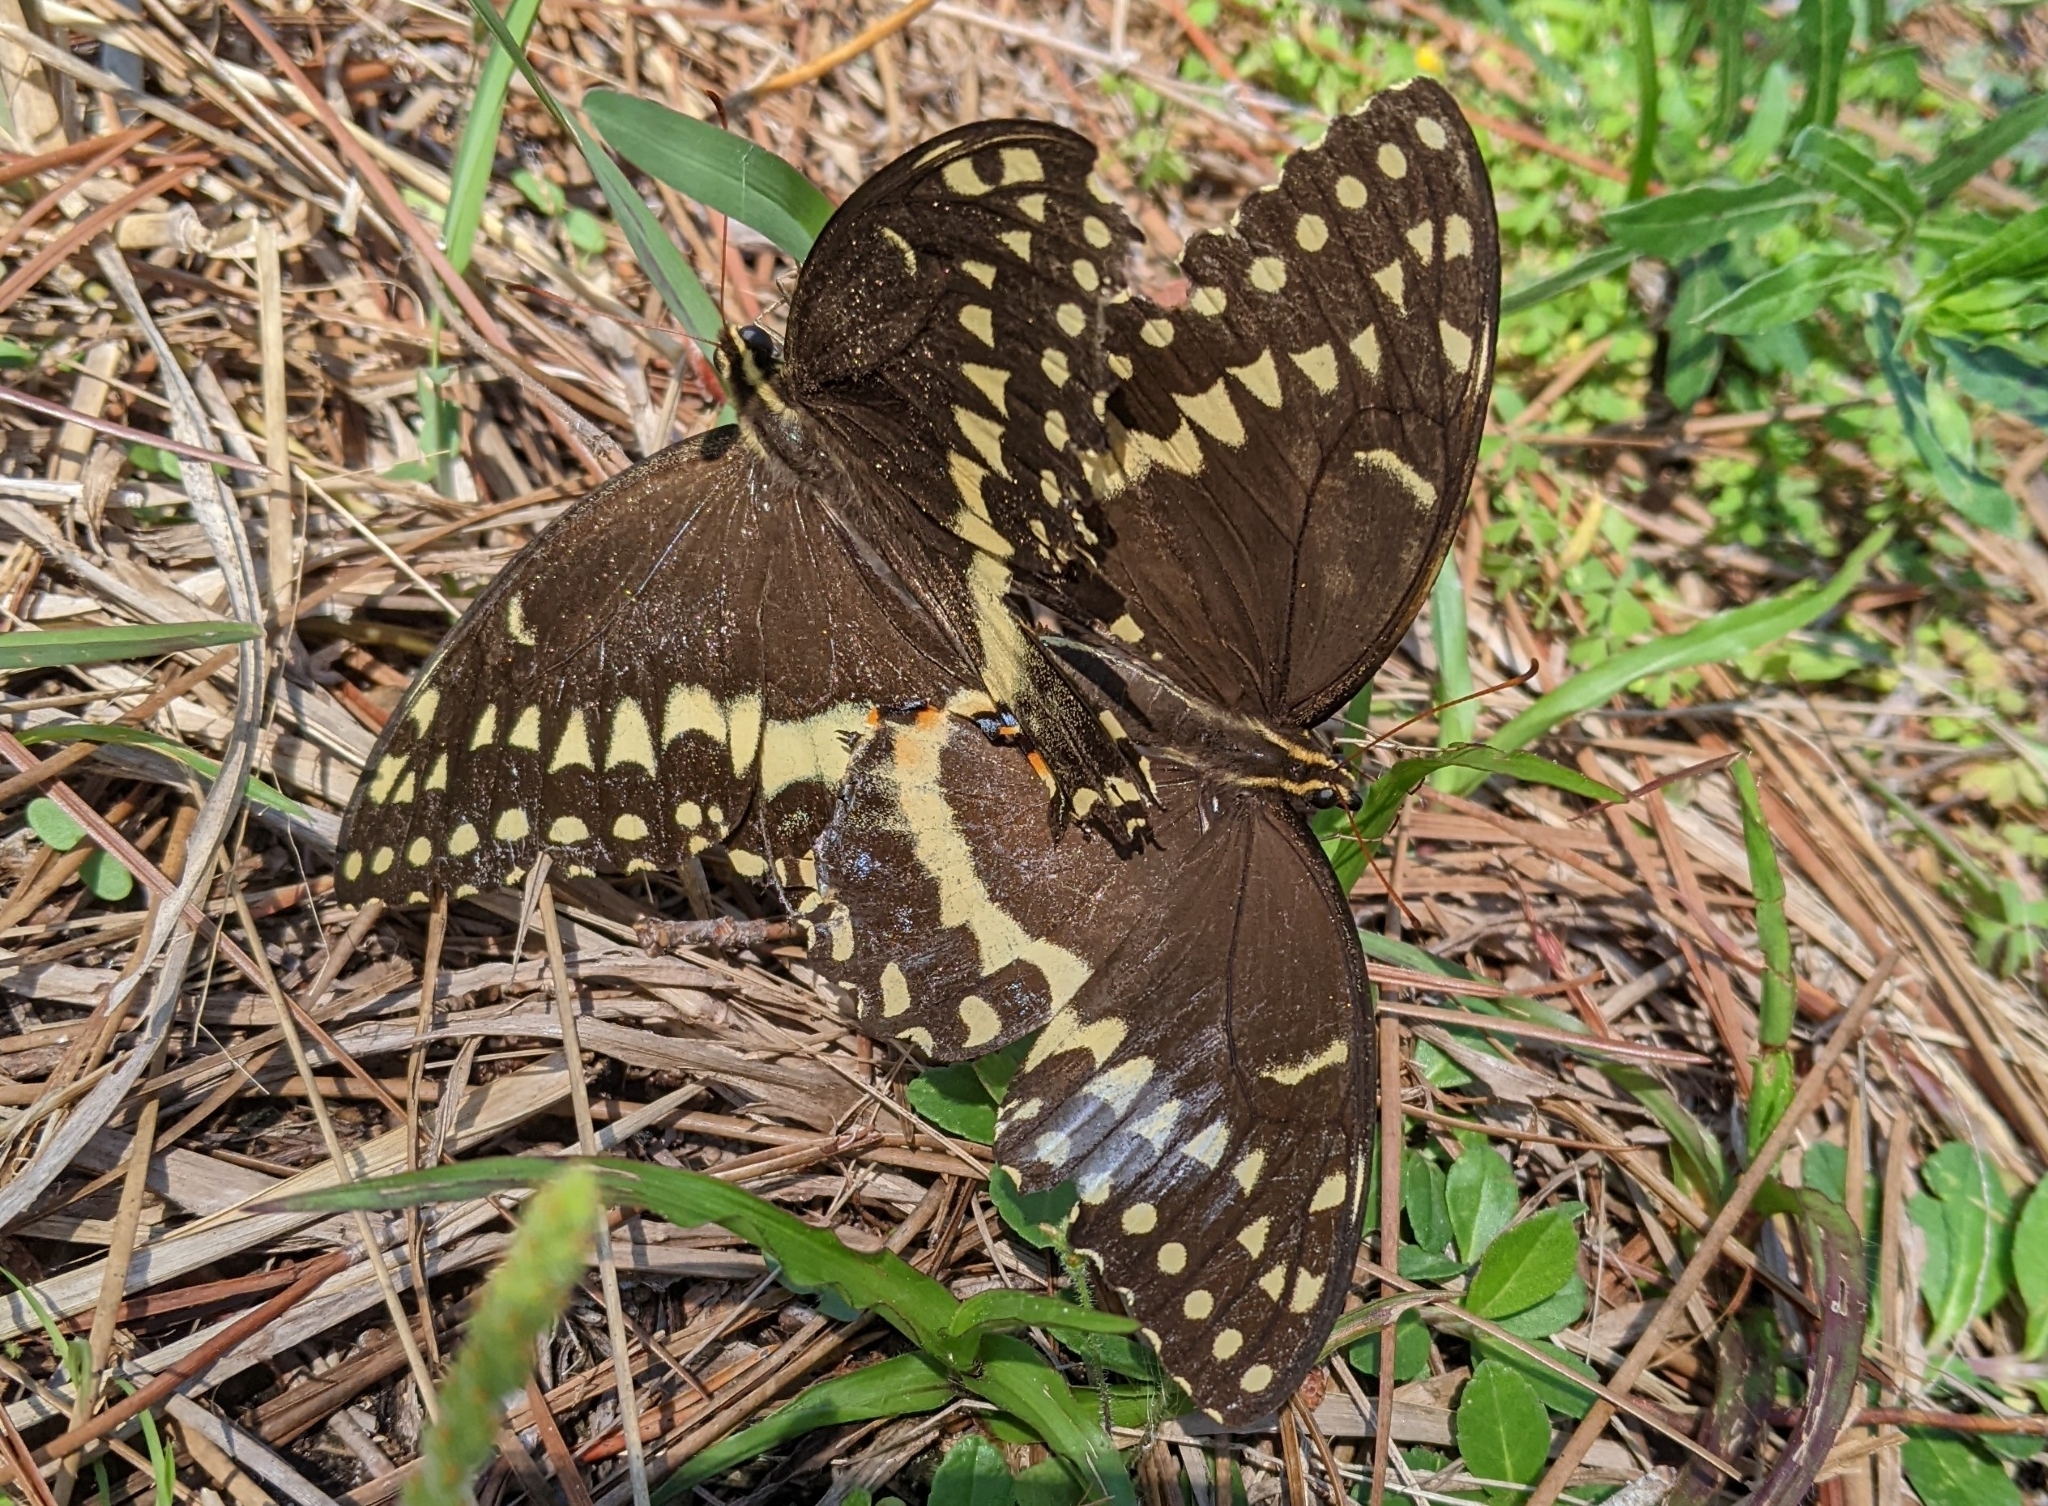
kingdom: Animalia
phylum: Arthropoda
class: Insecta
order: Lepidoptera
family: Papilionidae
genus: Papilio
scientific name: Papilio palamedes
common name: Palamedes swallowtail
